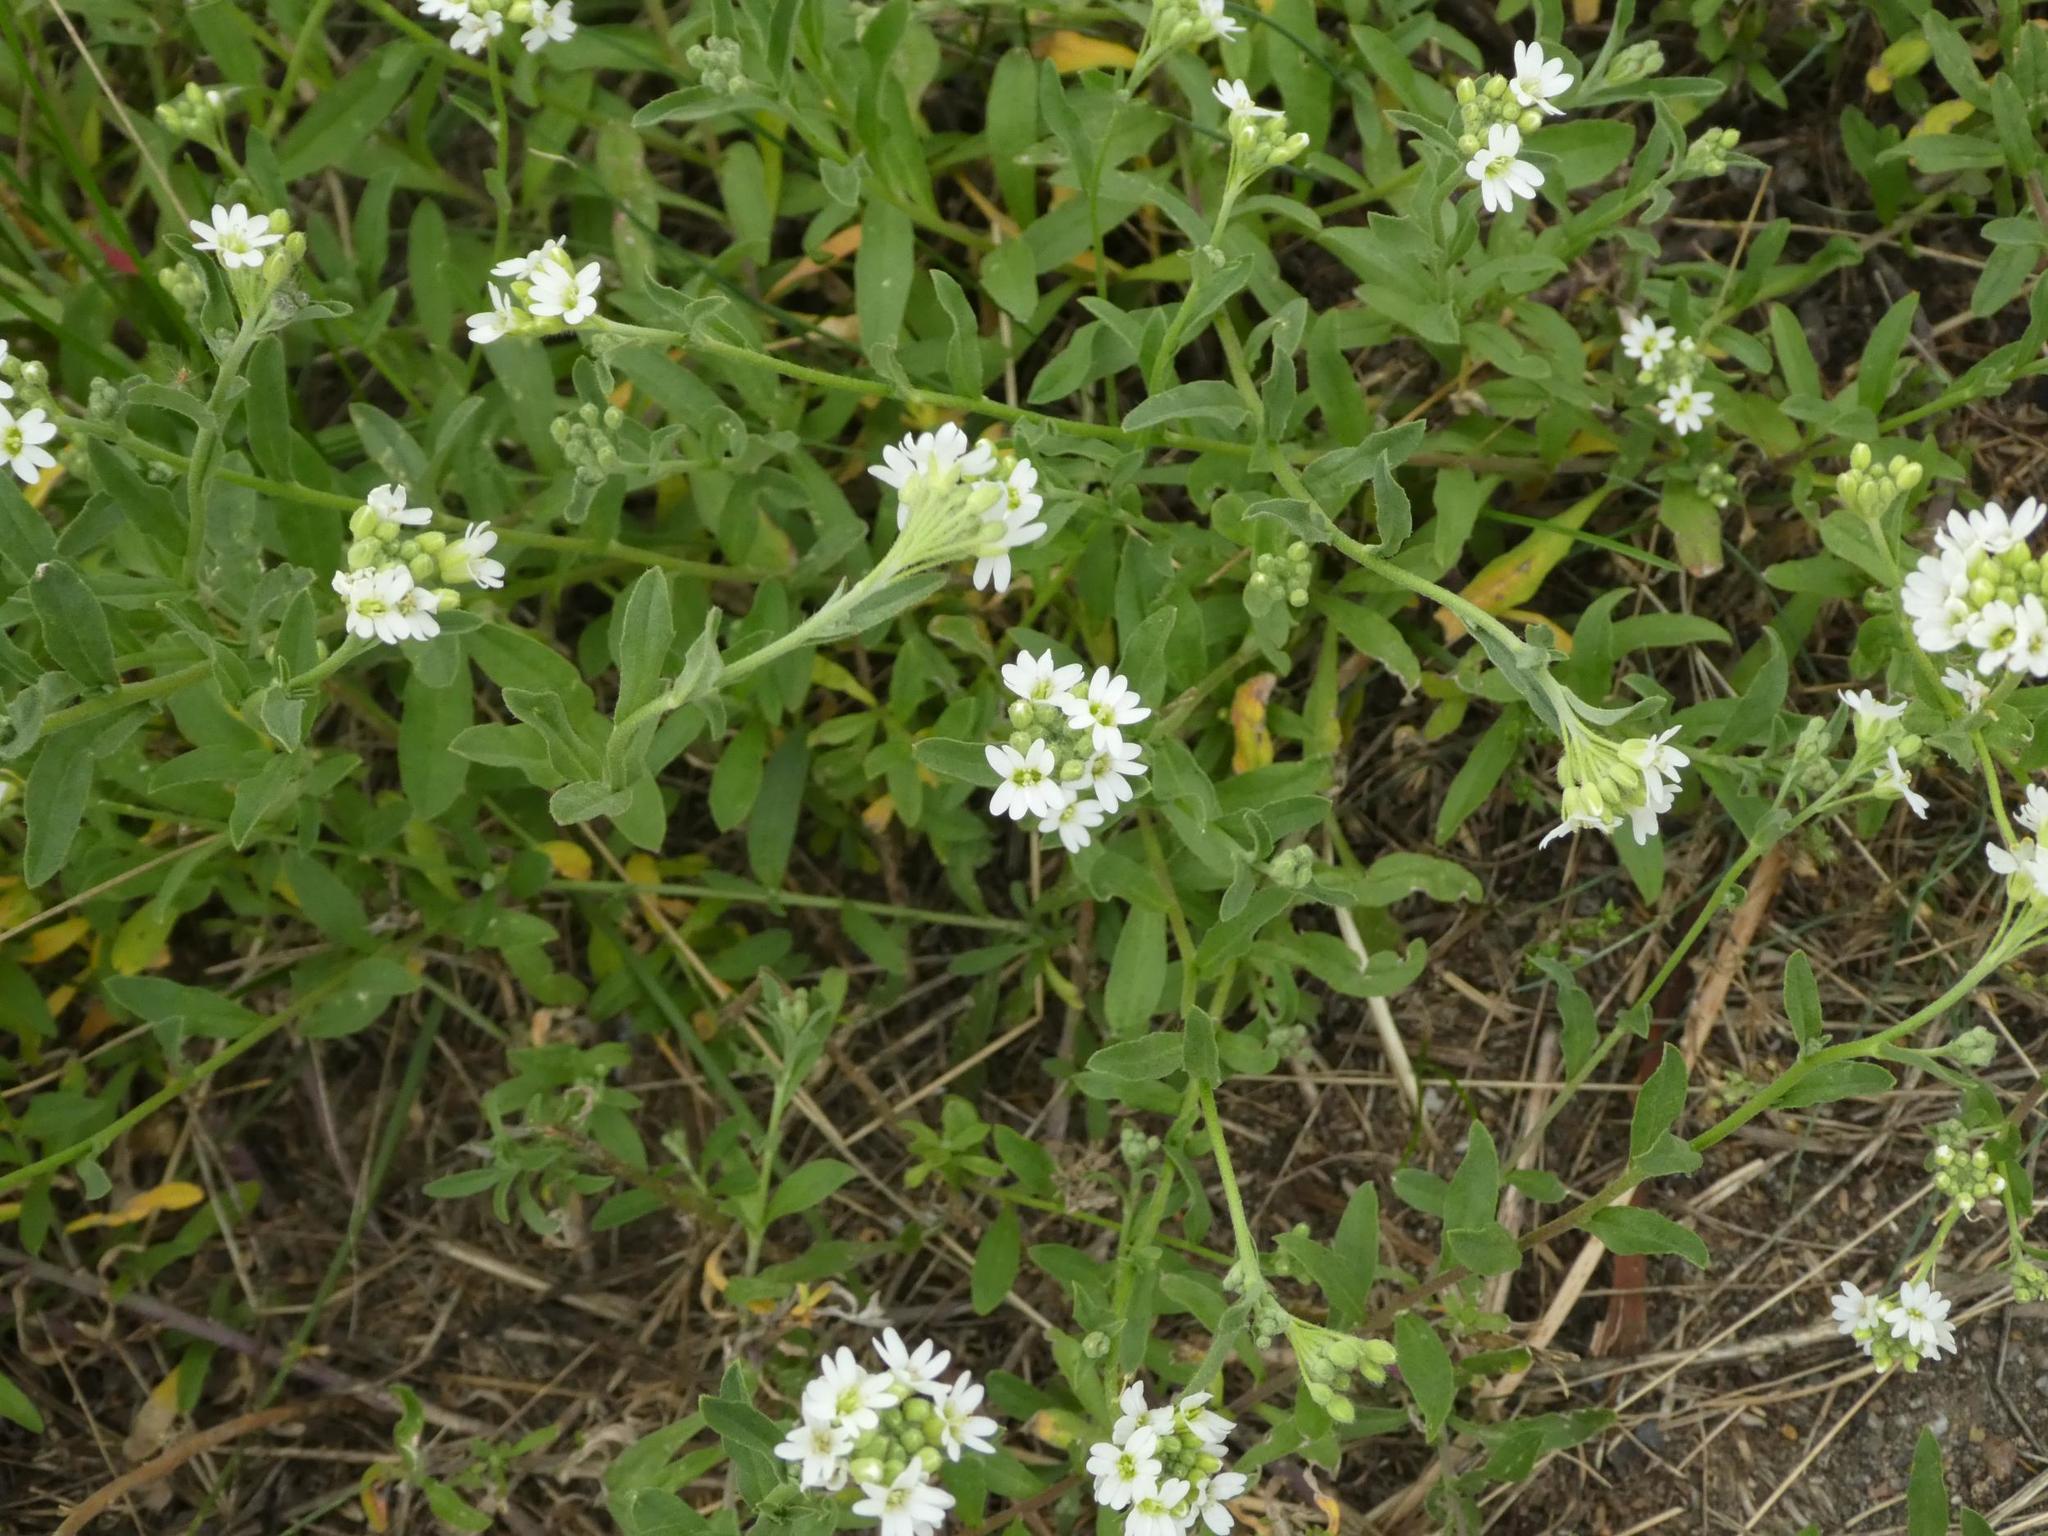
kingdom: Plantae
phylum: Tracheophyta
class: Magnoliopsida
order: Brassicales
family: Brassicaceae
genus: Berteroa
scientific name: Berteroa incana
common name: Hoary alison
